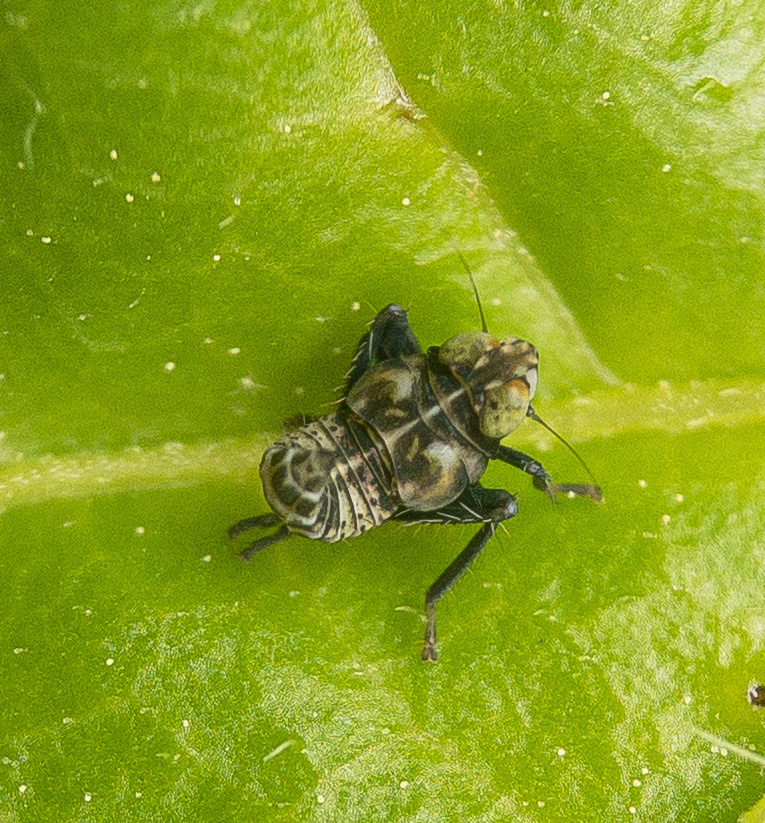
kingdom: Animalia
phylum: Arthropoda
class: Insecta
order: Hemiptera
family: Cicadellidae
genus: Jikradia
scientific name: Jikradia olitoria
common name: Coppery leafhopper
